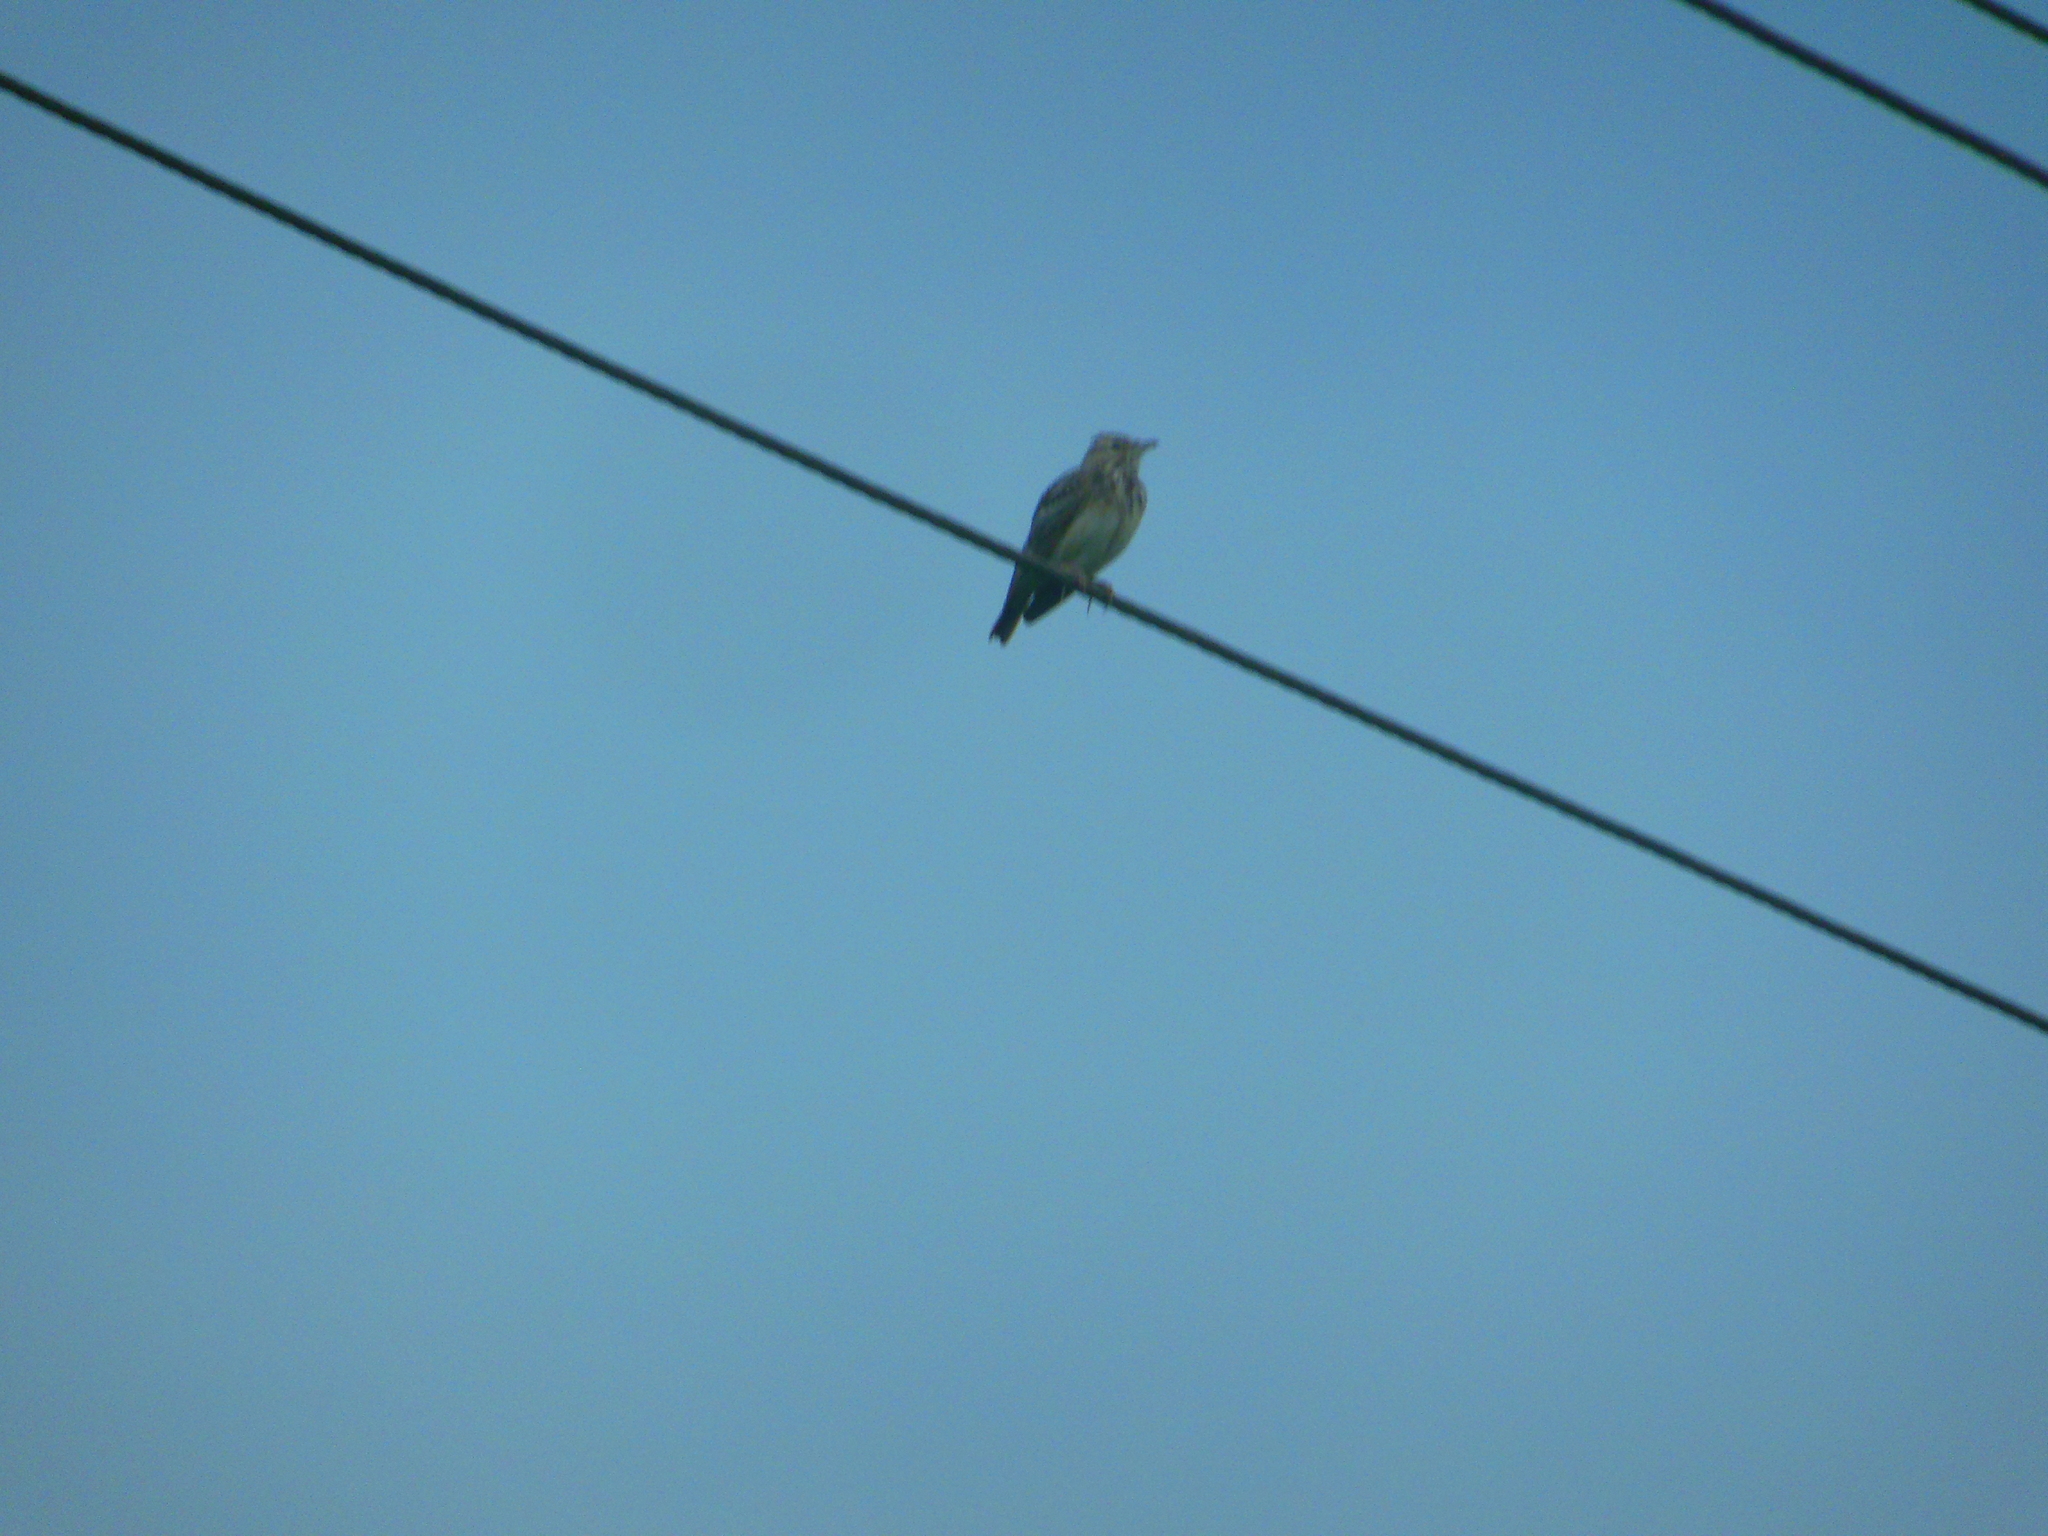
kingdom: Animalia
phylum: Chordata
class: Aves
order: Passeriformes
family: Alaudidae
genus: Galerida
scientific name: Galerida malabarica
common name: Malabar lark
